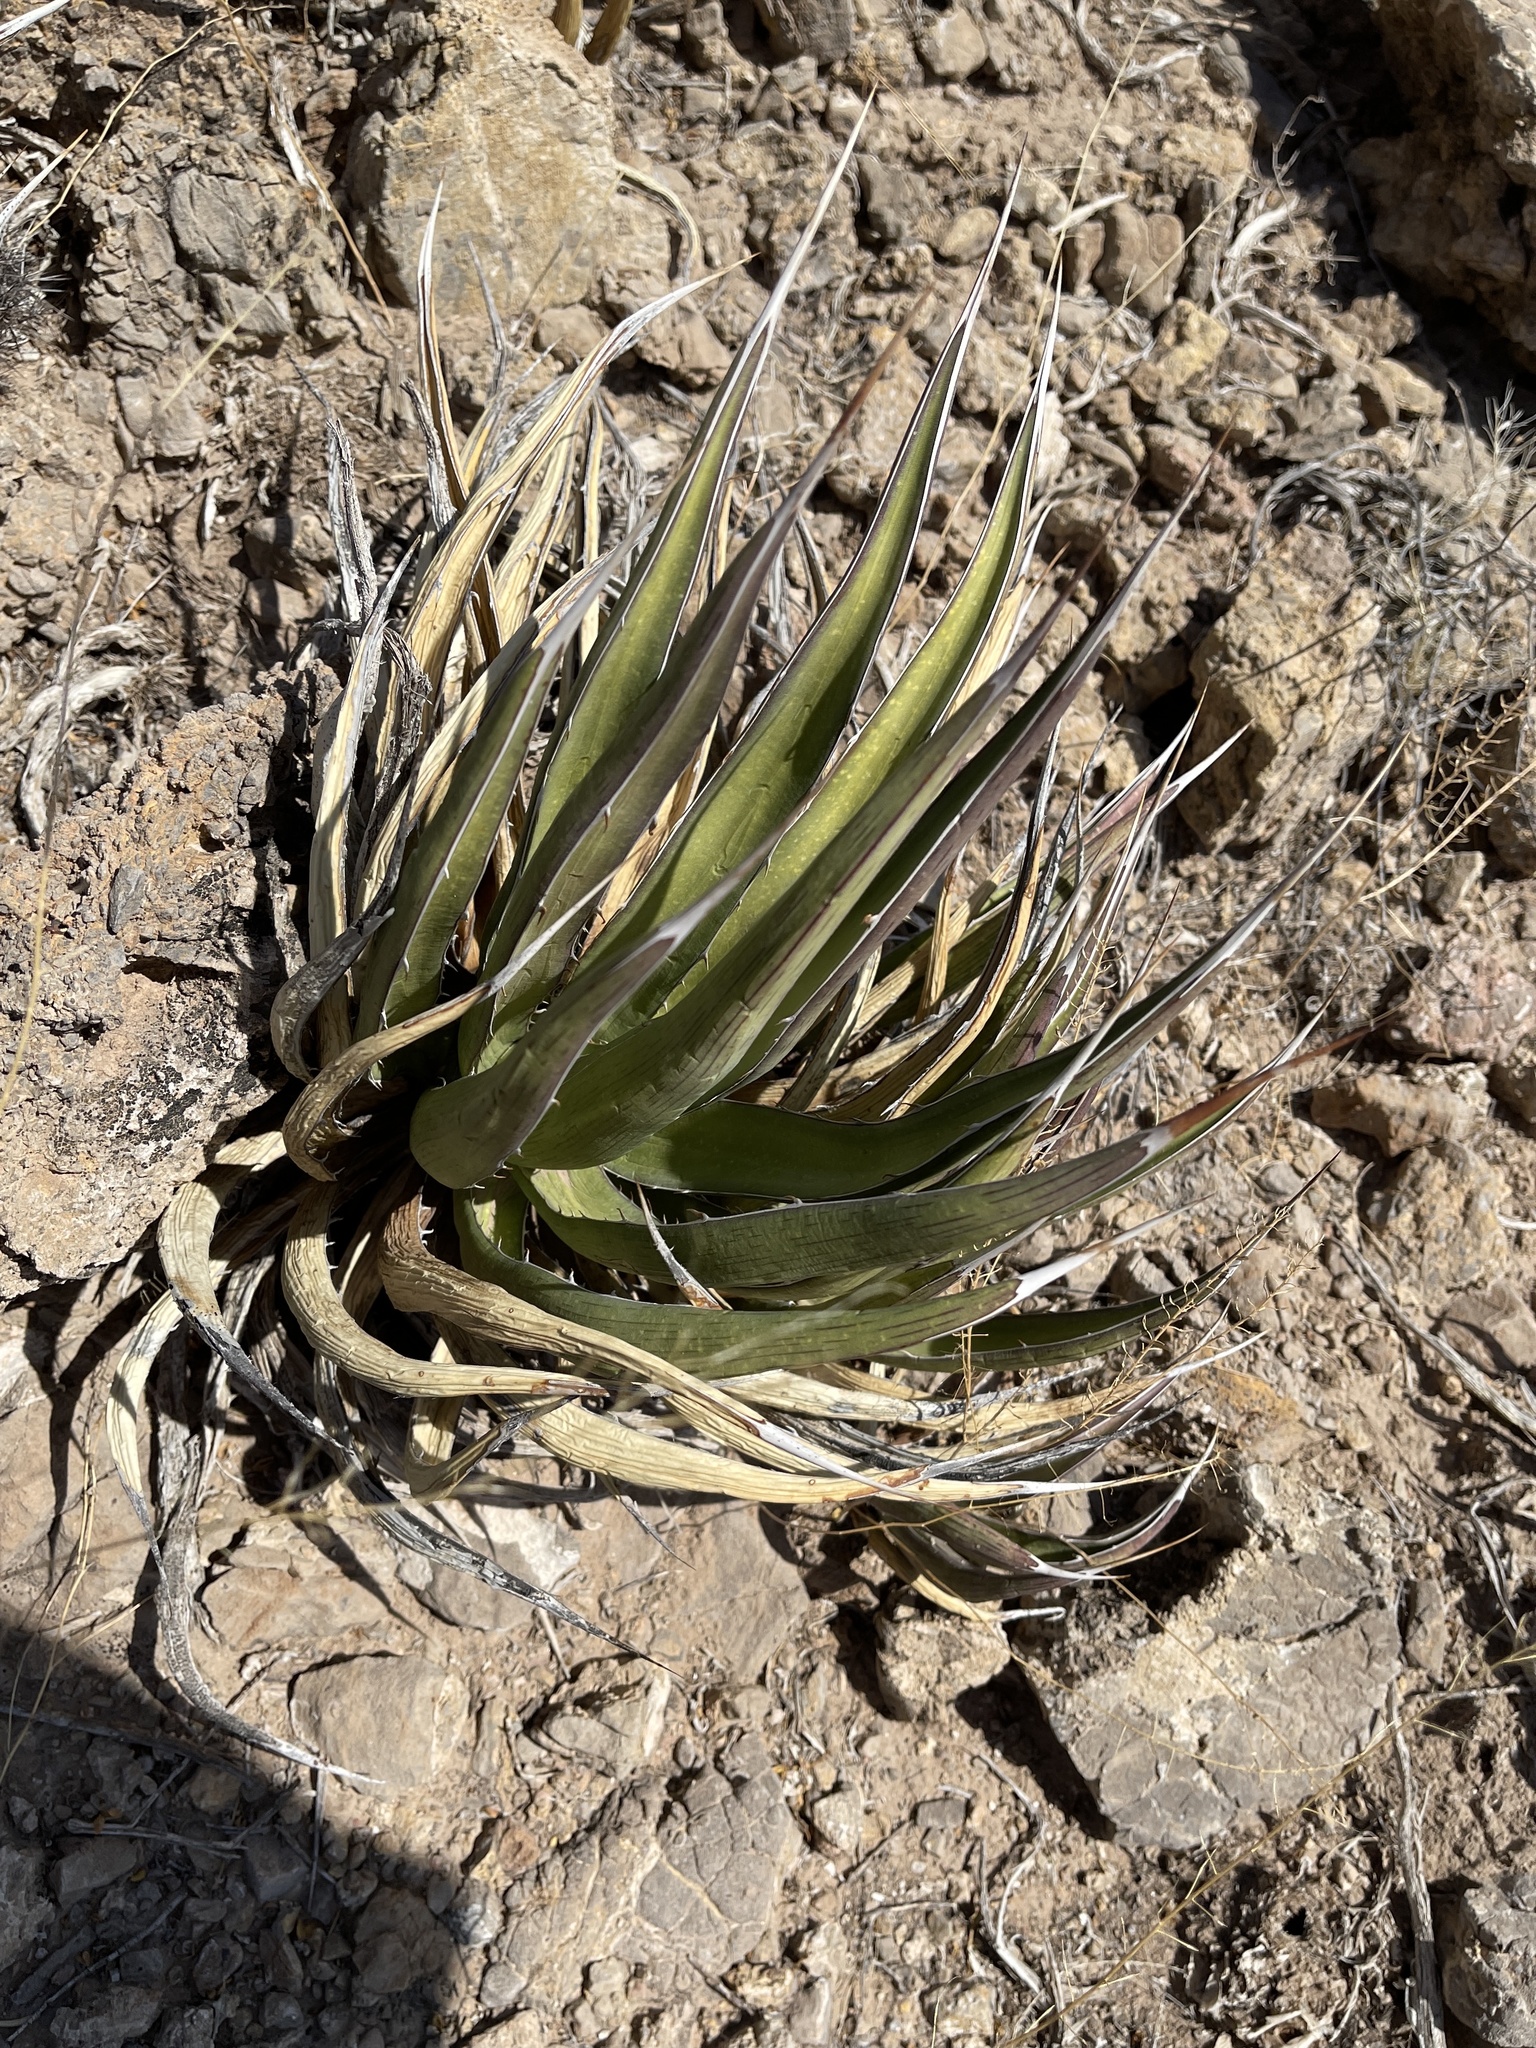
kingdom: Plantae
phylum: Tracheophyta
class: Liliopsida
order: Asparagales
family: Asparagaceae
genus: Agave
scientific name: Agave lechuguilla
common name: Lecheguilla agave
